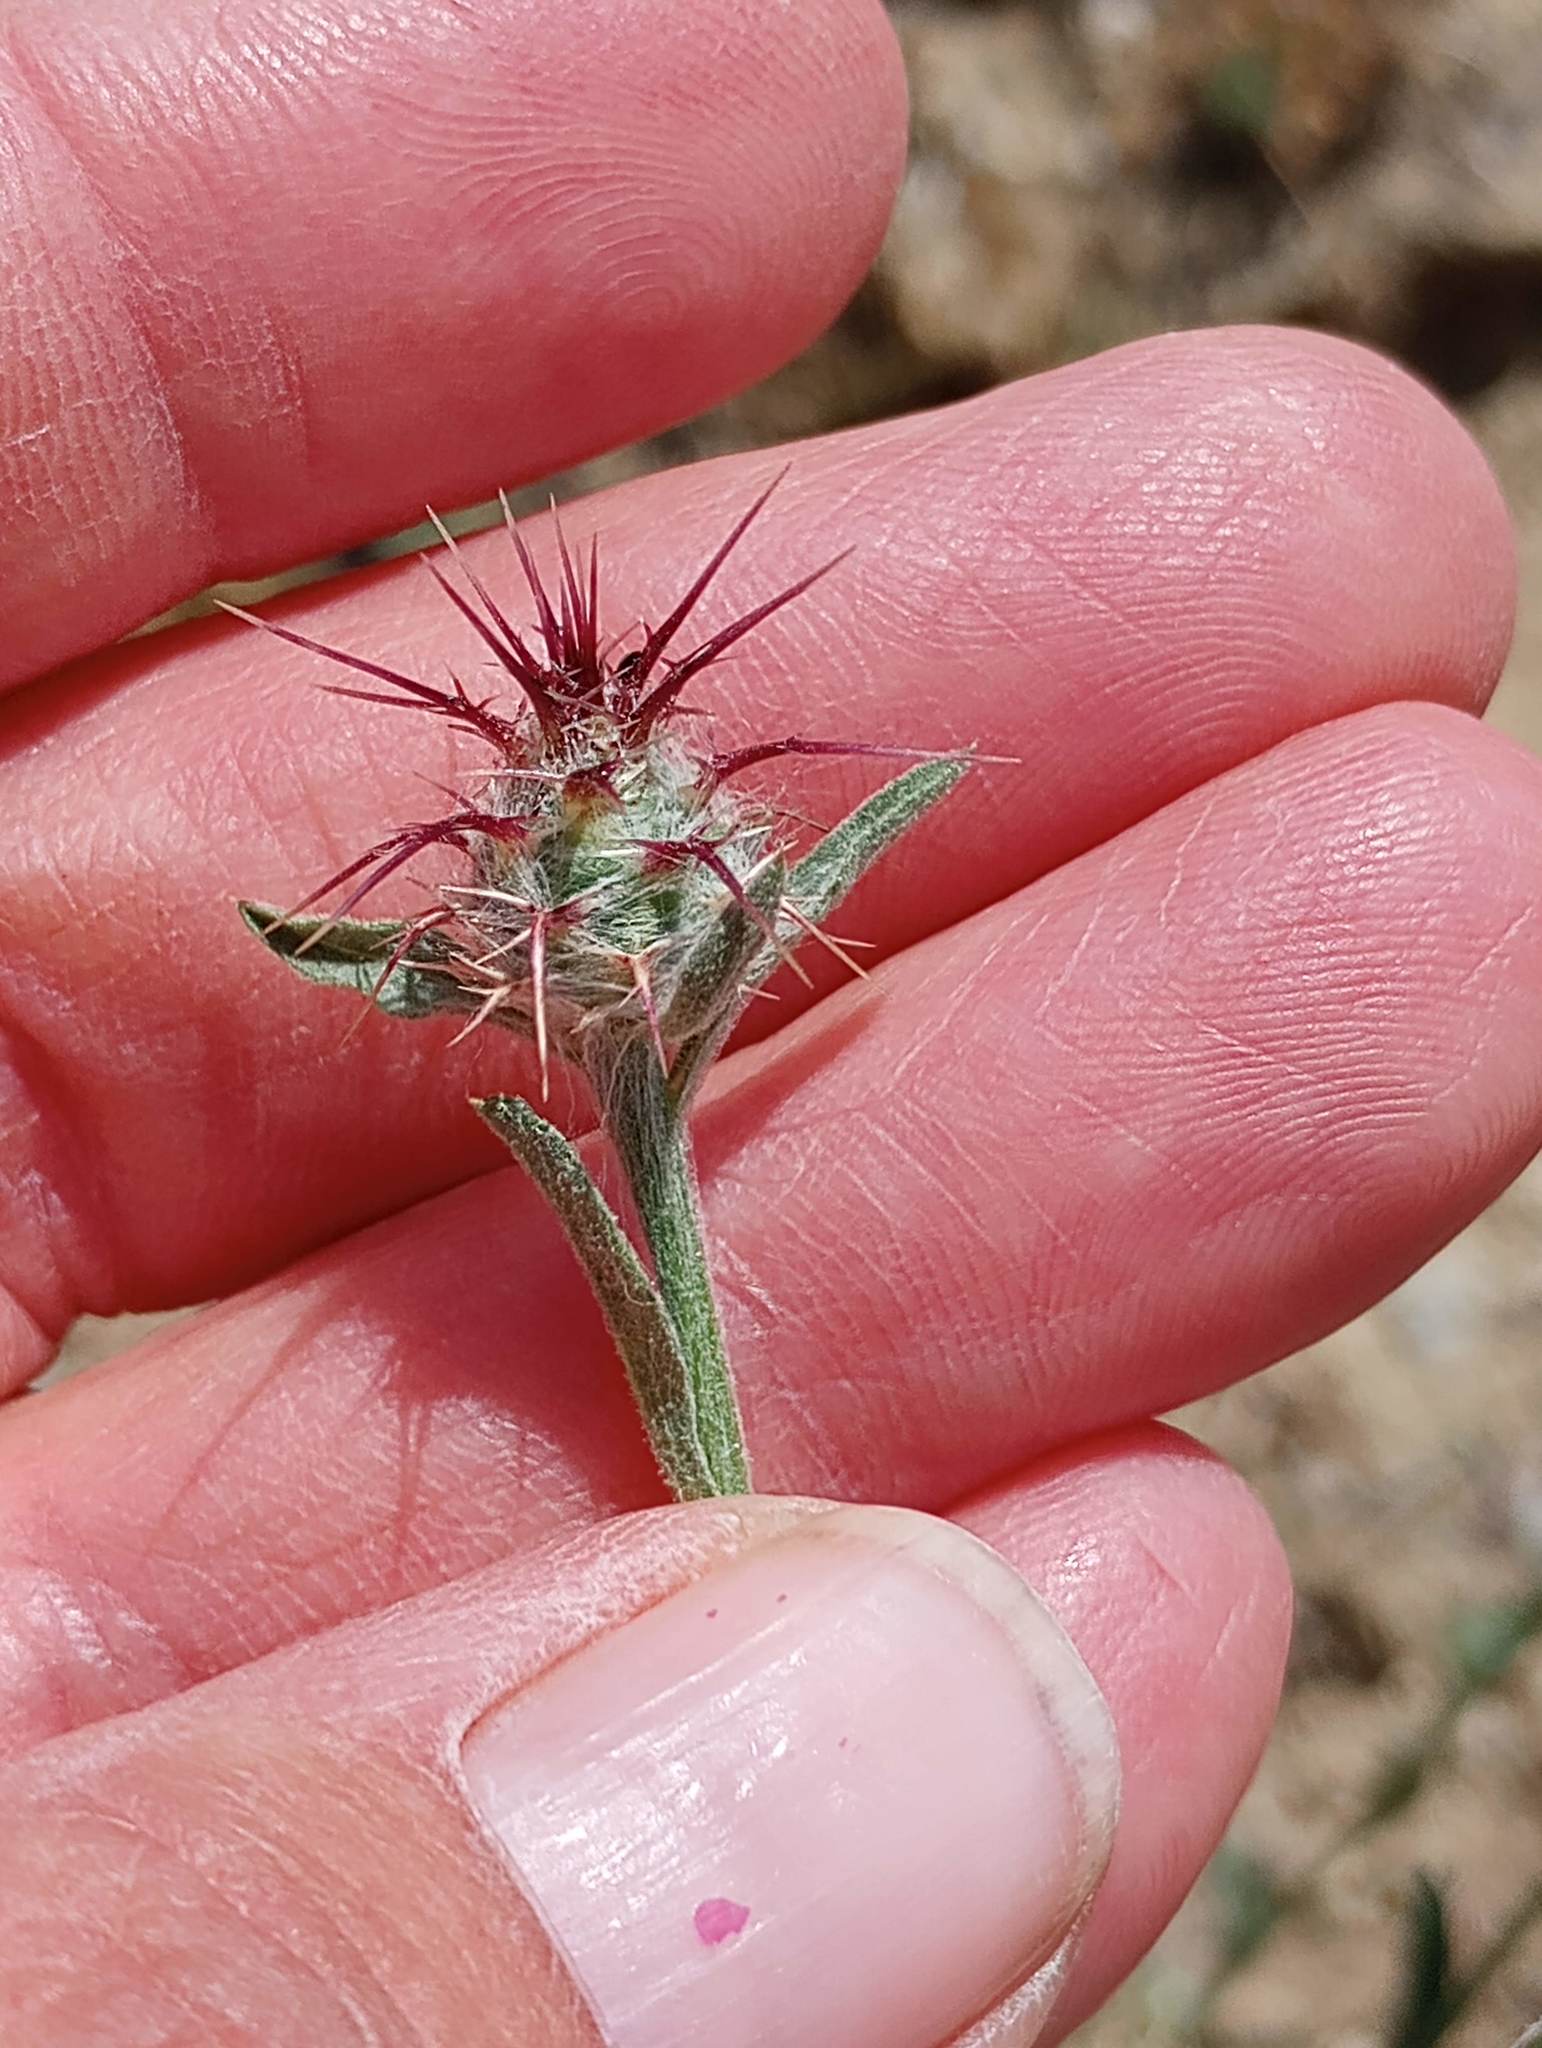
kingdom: Plantae
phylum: Tracheophyta
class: Magnoliopsida
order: Asterales
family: Asteraceae
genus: Centaurea
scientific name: Centaurea melitensis
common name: Maltese star-thistle
